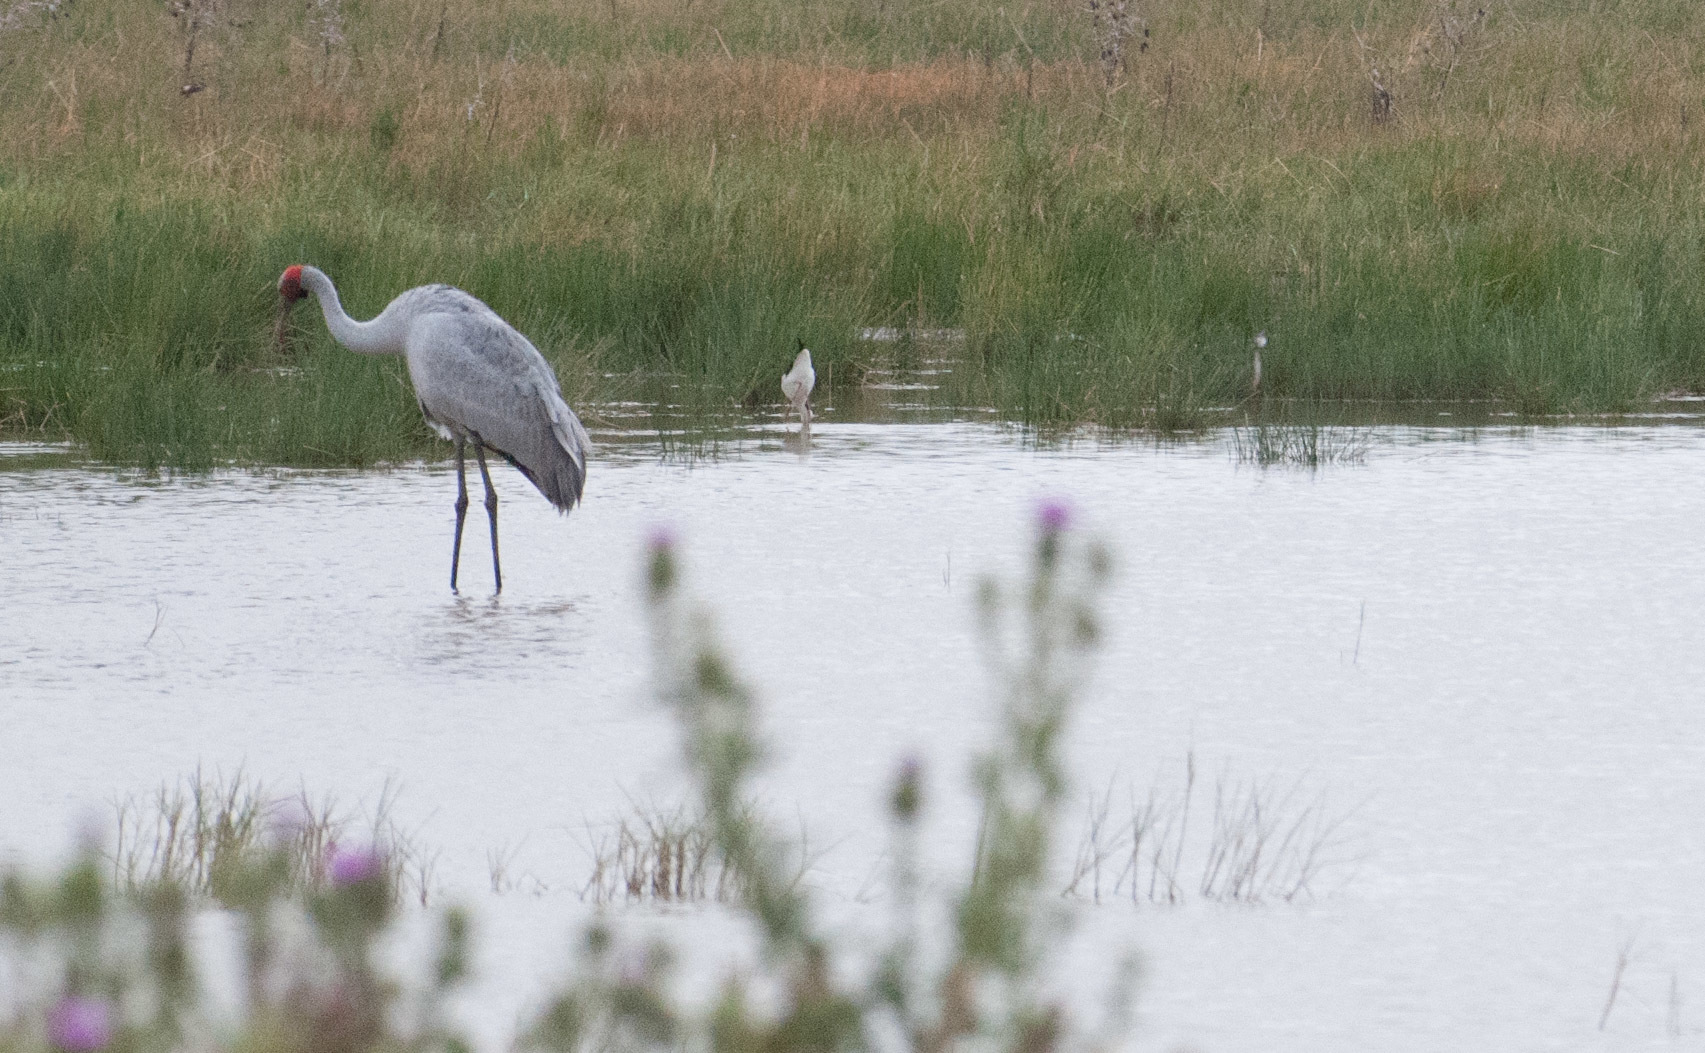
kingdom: Animalia
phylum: Chordata
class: Aves
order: Gruiformes
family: Gruidae
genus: Grus
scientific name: Grus rubicunda
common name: Brolga
